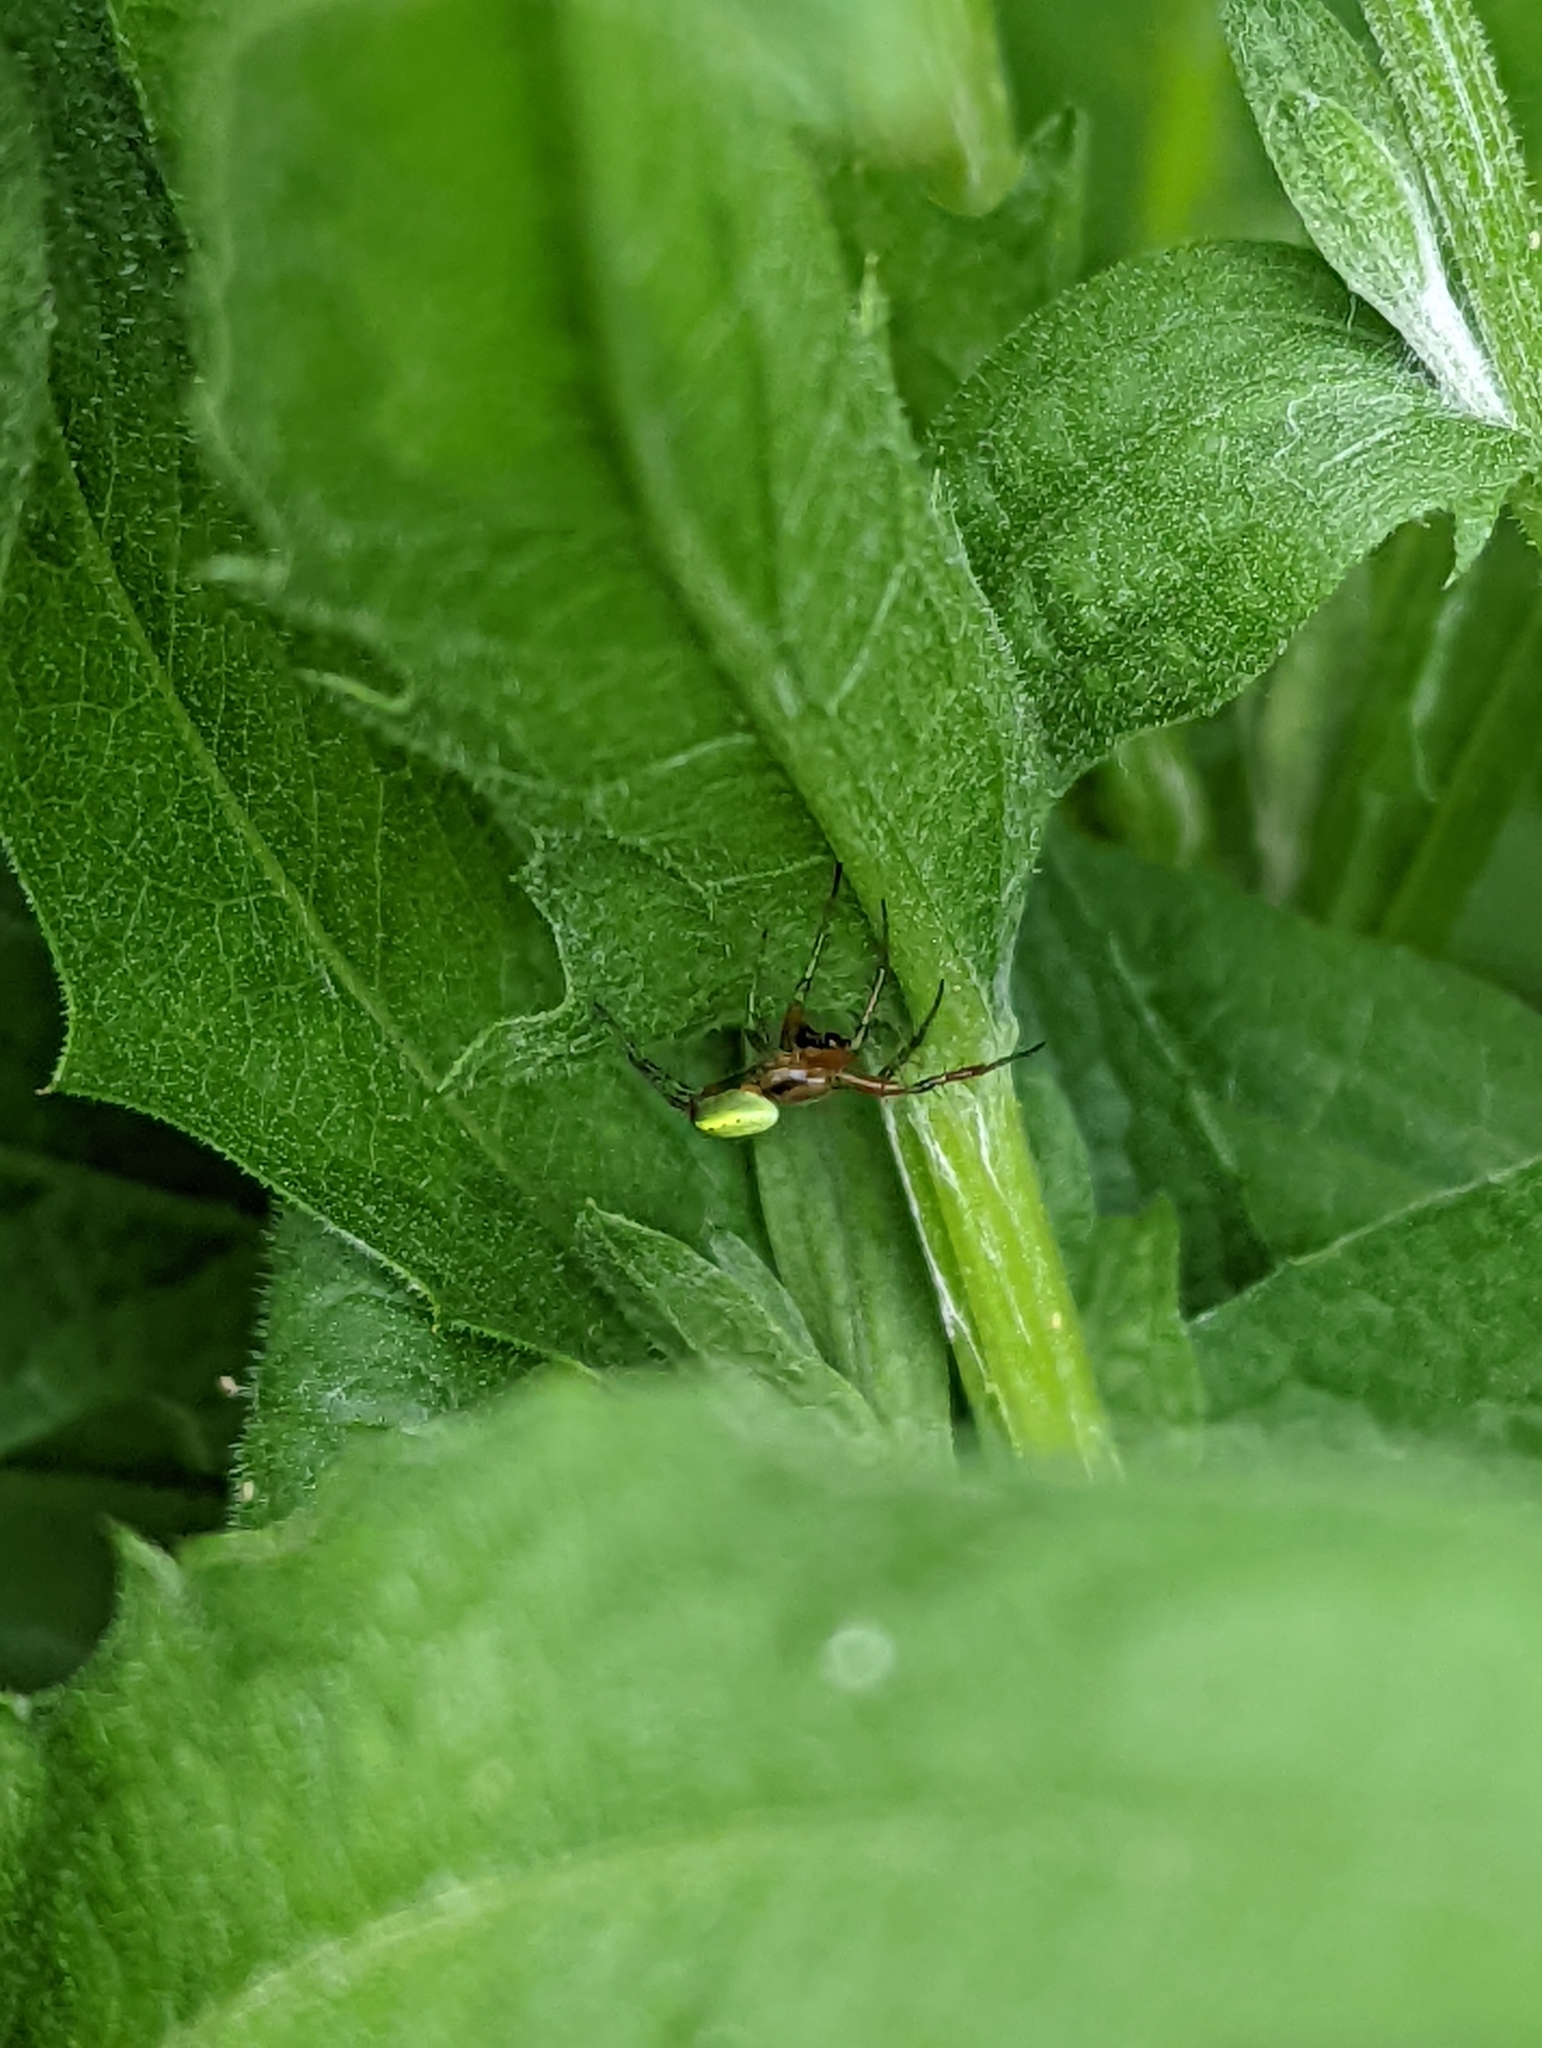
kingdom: Animalia
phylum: Arthropoda
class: Arachnida
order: Araneae
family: Araneidae
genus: Araniella
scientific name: Araniella cucurbitina
